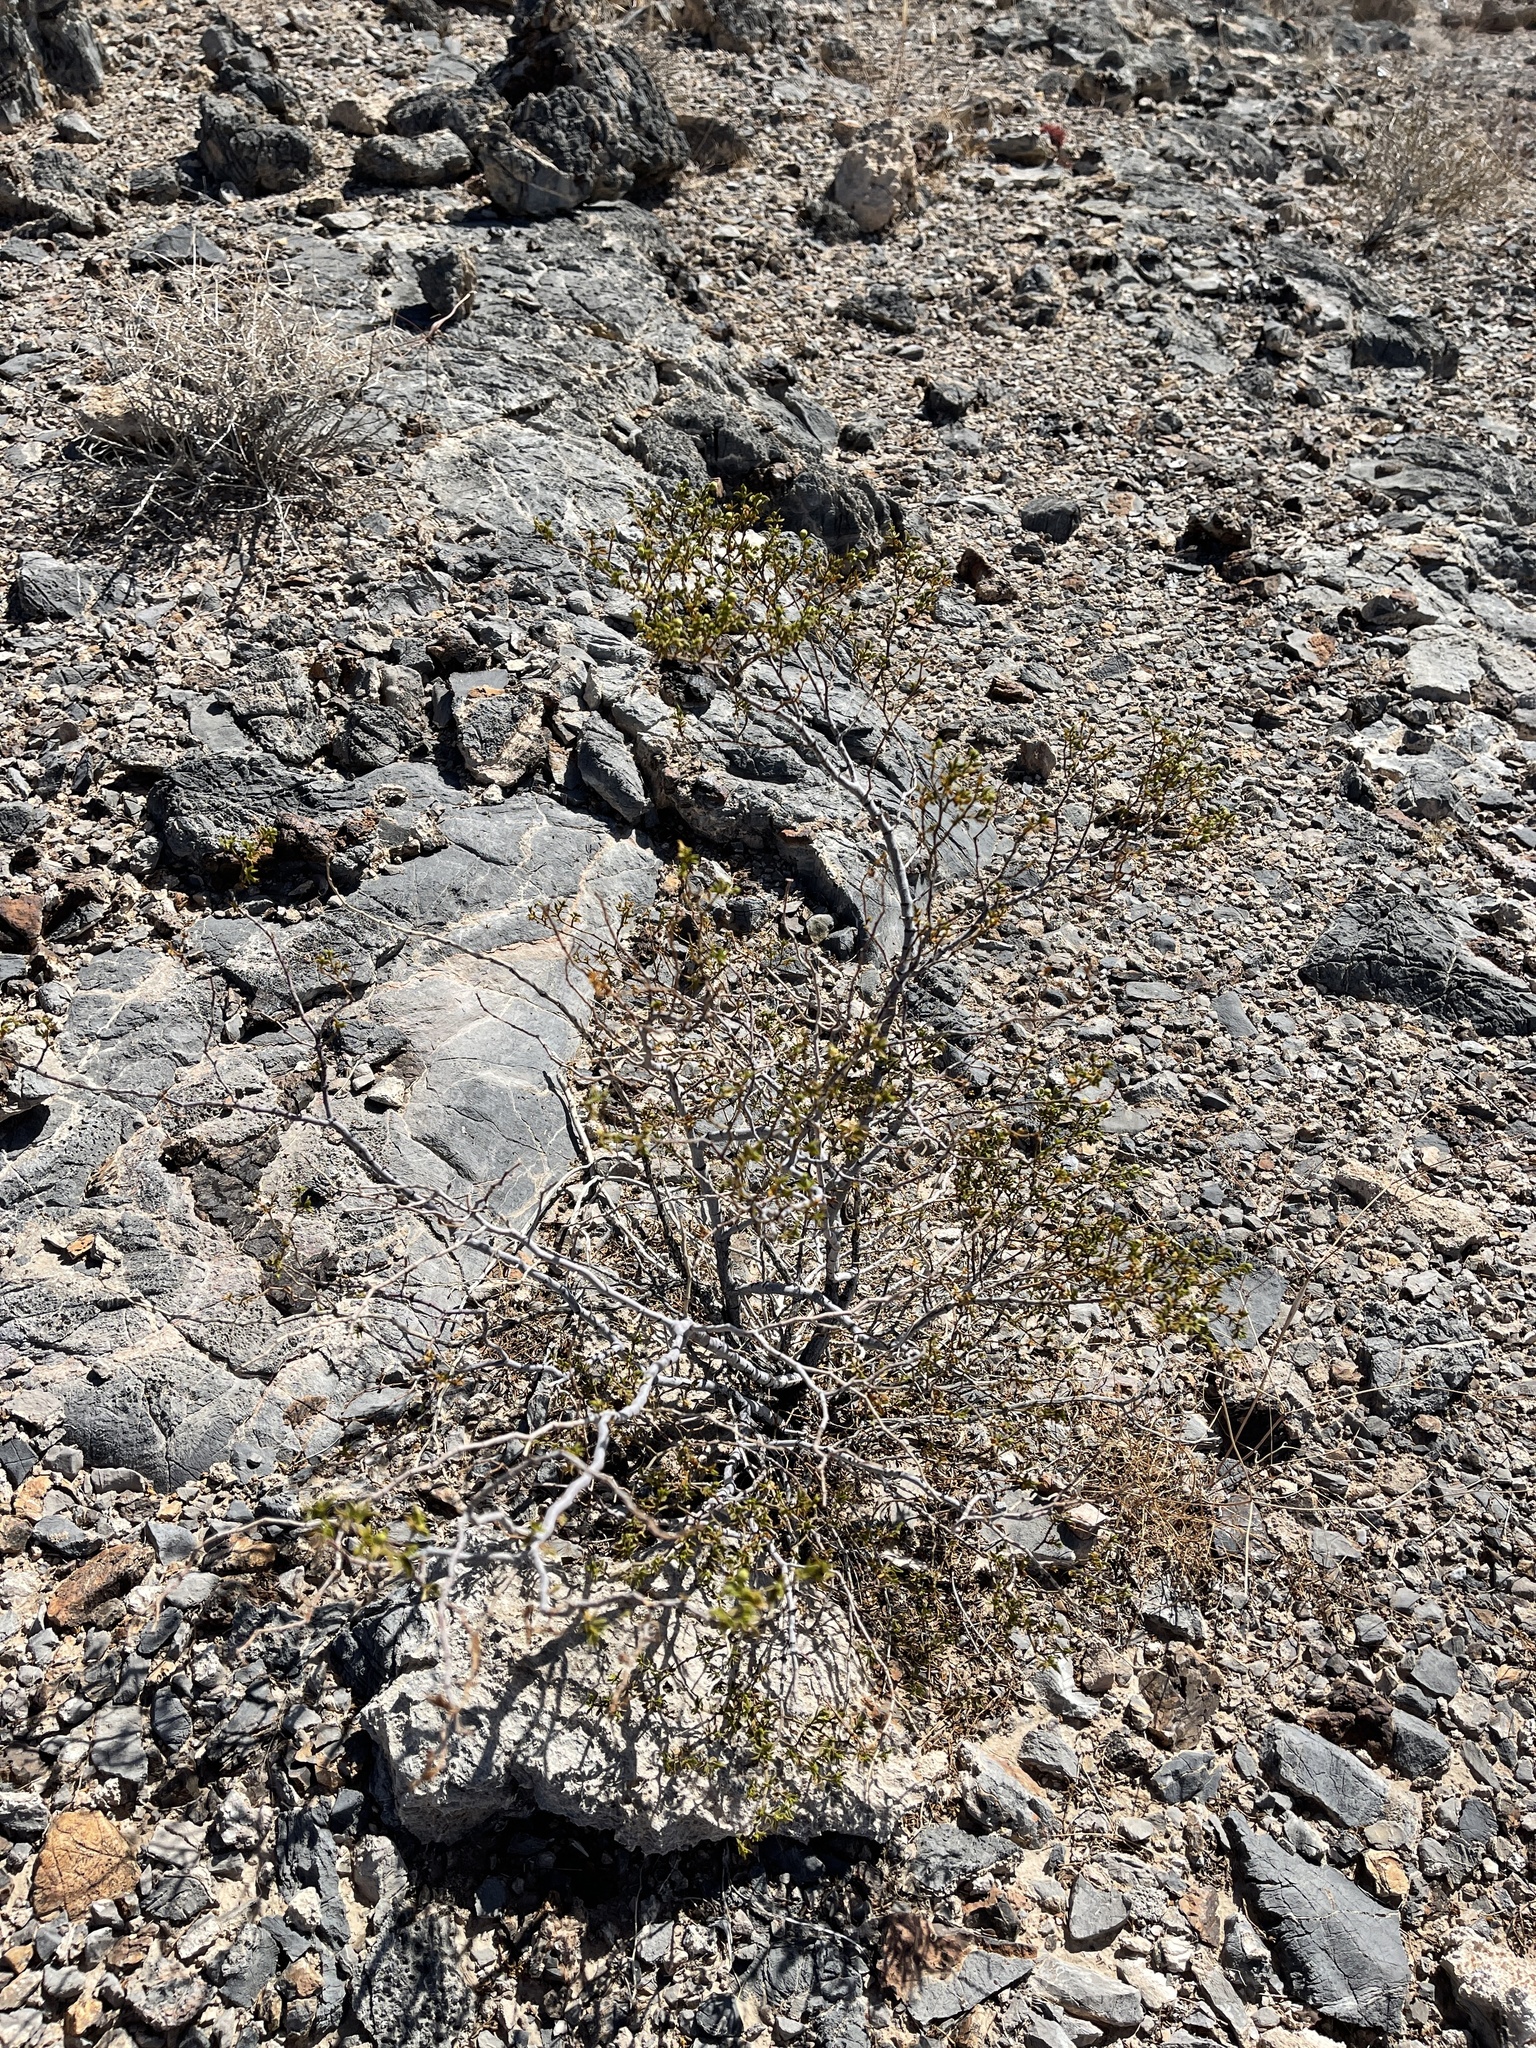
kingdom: Plantae
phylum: Tracheophyta
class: Magnoliopsida
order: Zygophyllales
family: Zygophyllaceae
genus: Larrea
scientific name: Larrea tridentata
